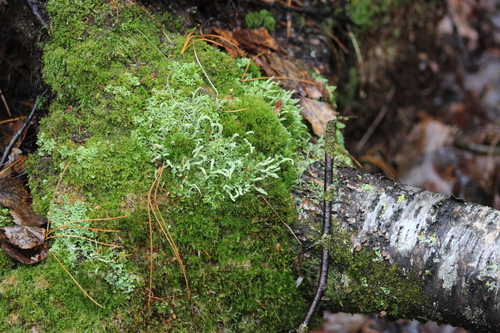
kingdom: Fungi
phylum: Ascomycota
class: Lecanoromycetes
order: Lecanorales
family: Cladoniaceae
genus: Cladonia
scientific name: Cladonia coniocraea
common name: Common powderhorn
